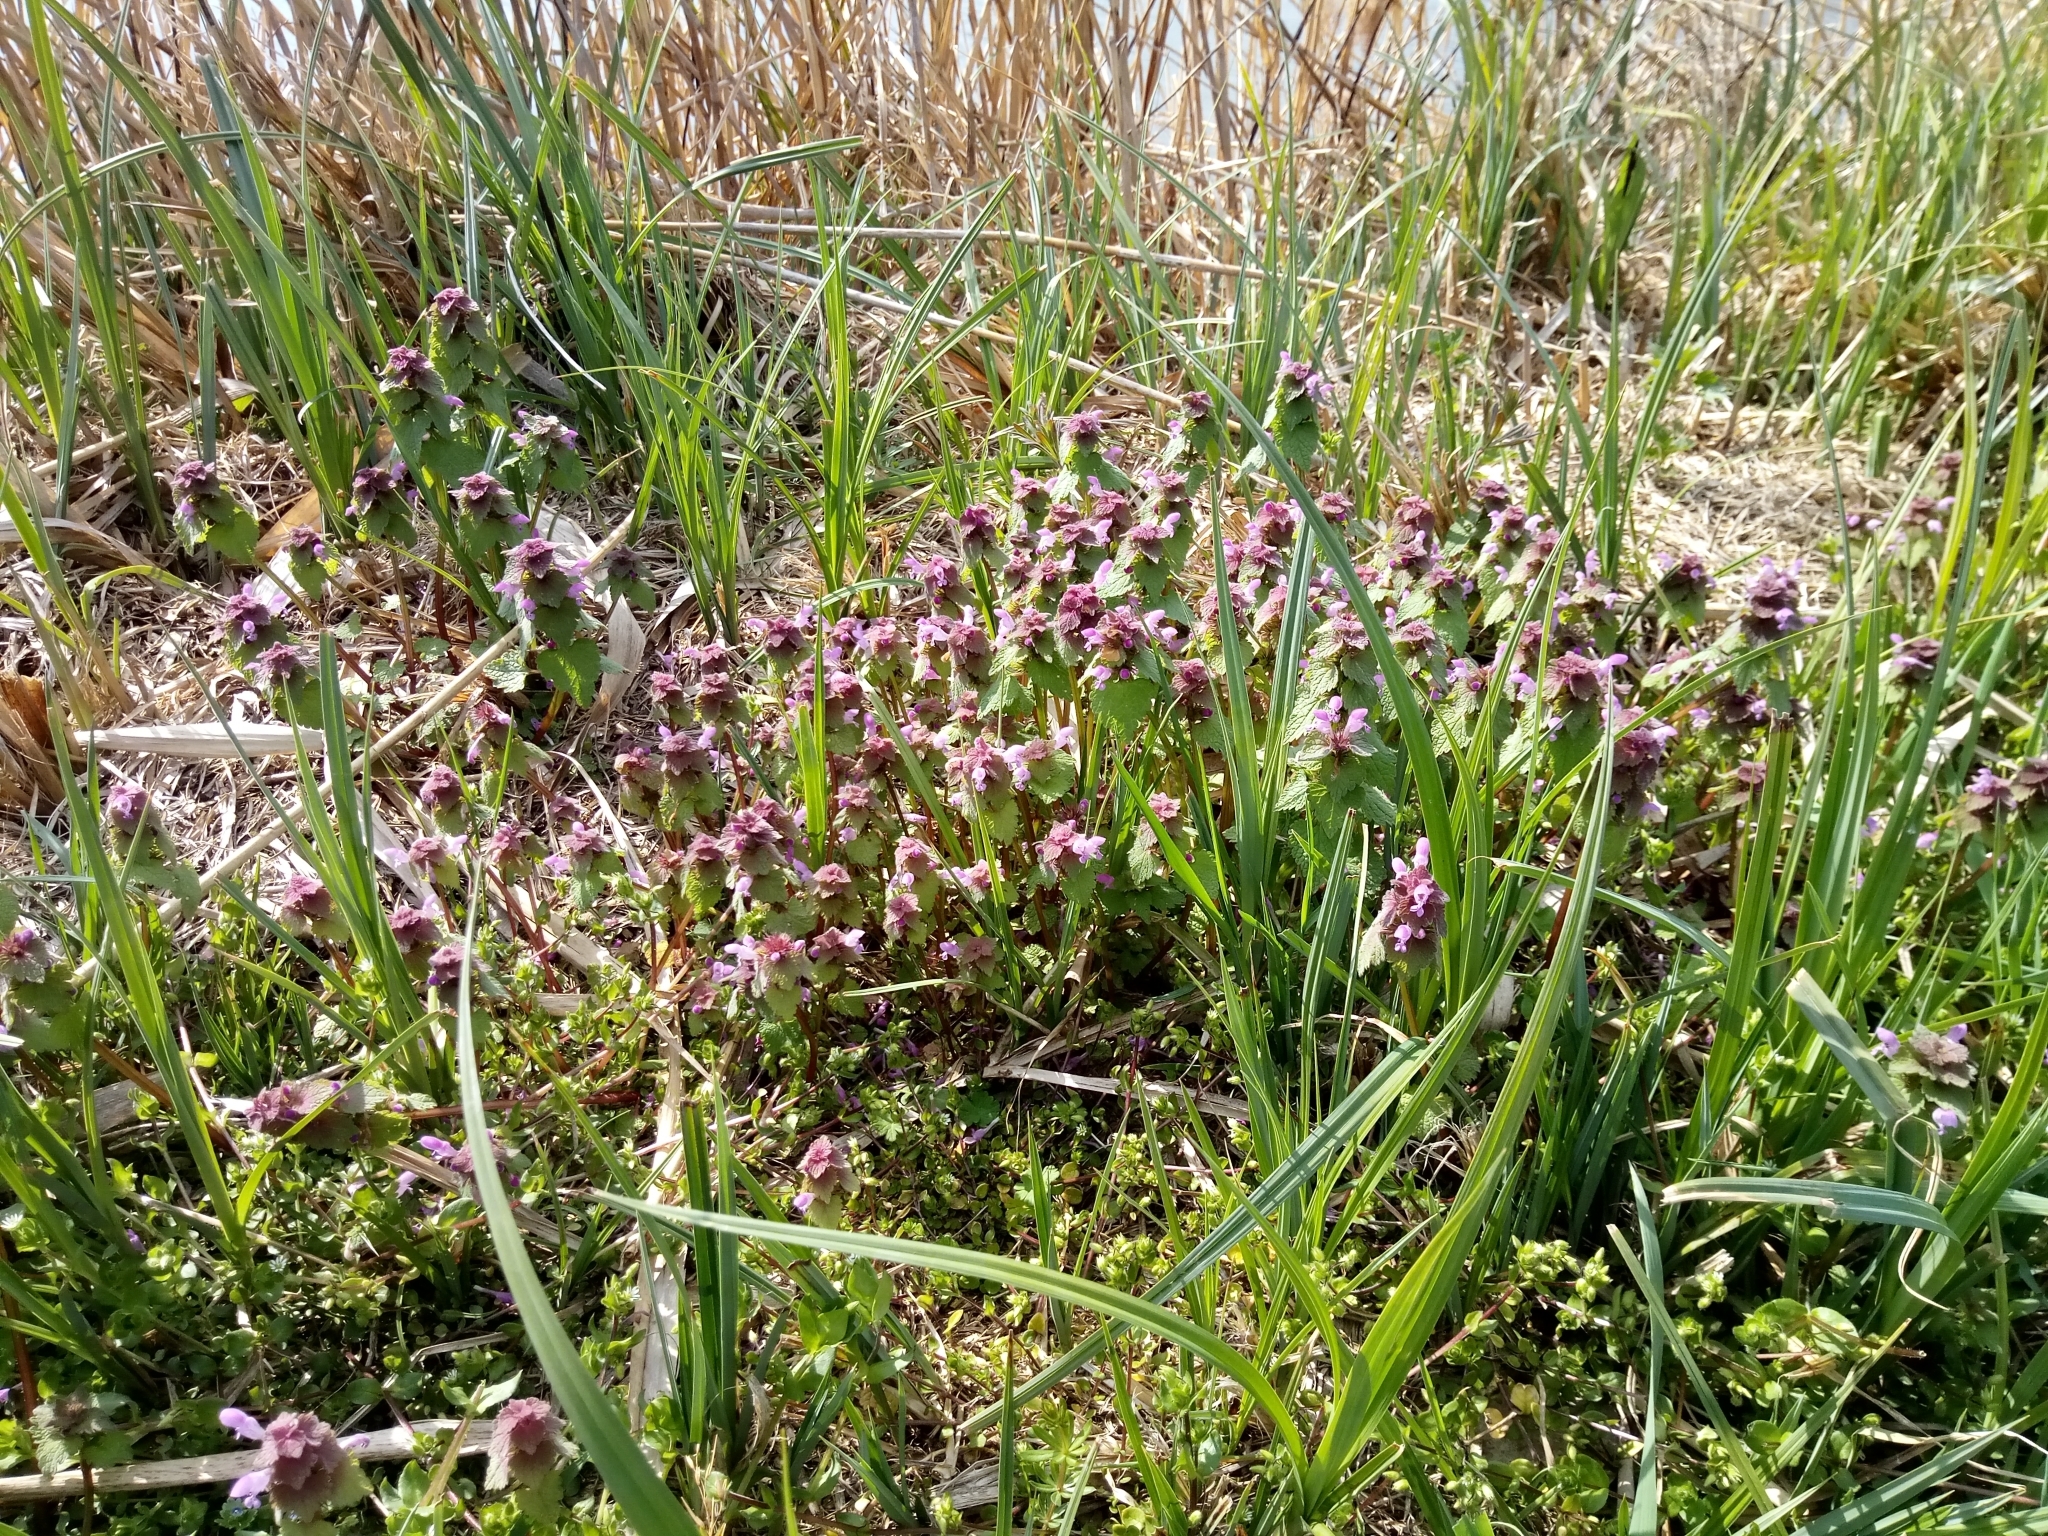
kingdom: Plantae
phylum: Tracheophyta
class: Magnoliopsida
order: Lamiales
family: Lamiaceae
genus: Lamium
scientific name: Lamium purpureum
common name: Red dead-nettle
